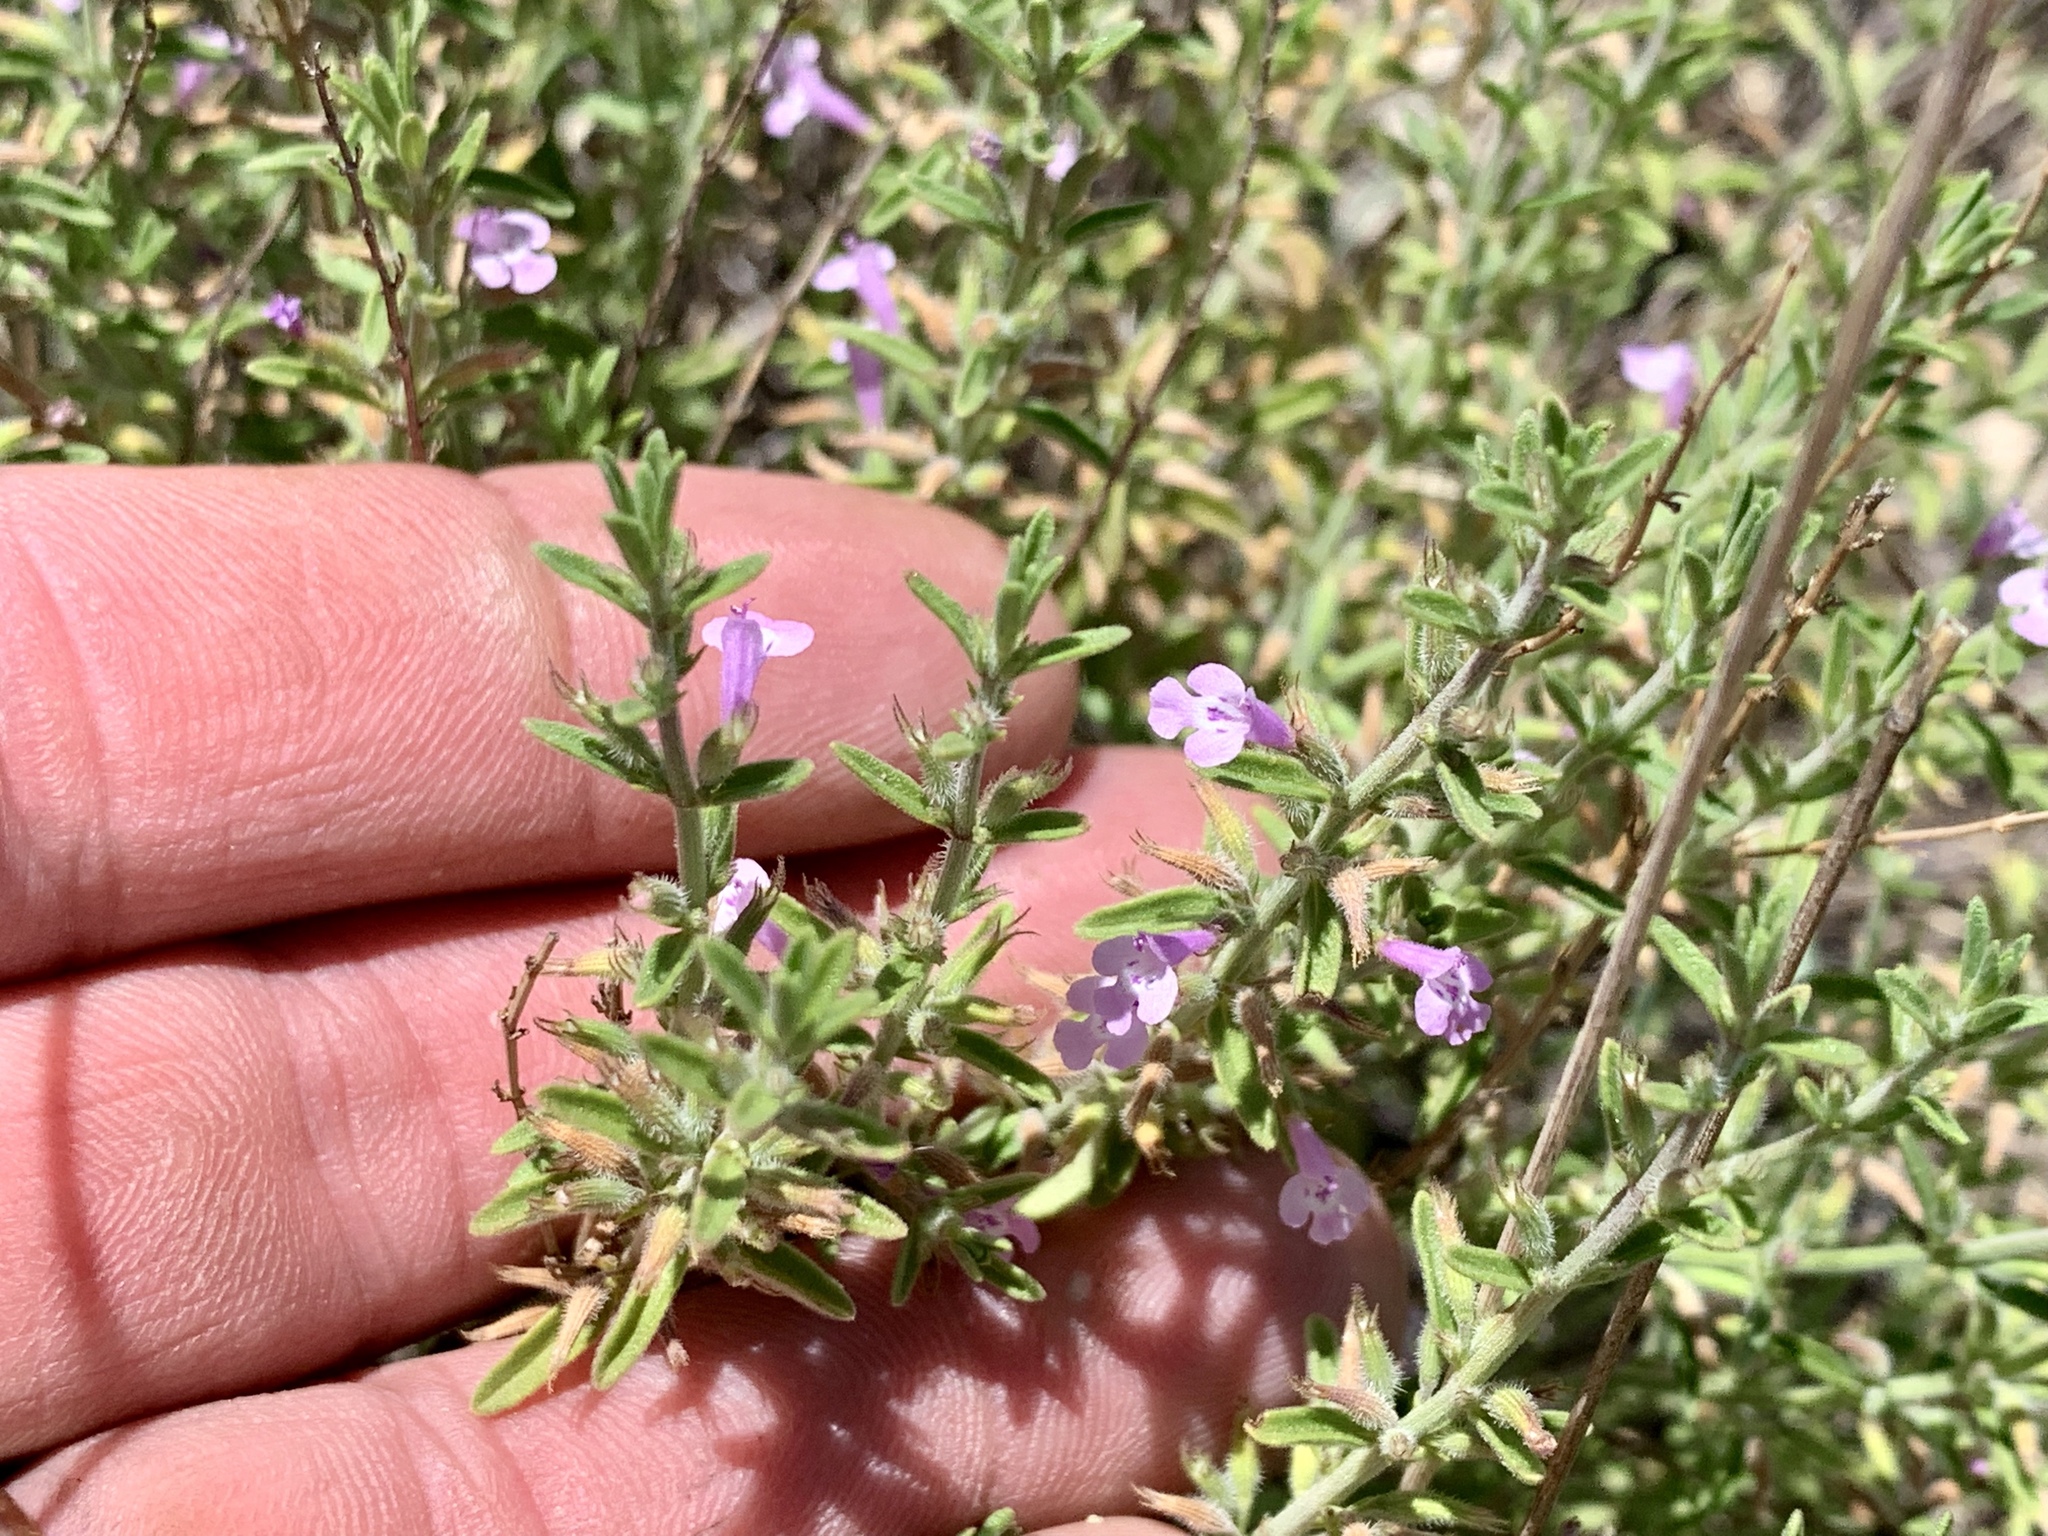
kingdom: Plantae
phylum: Tracheophyta
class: Magnoliopsida
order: Lamiales
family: Lamiaceae
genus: Hedeoma
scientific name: Hedeoma drummondii
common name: New mexico pennyroyal
